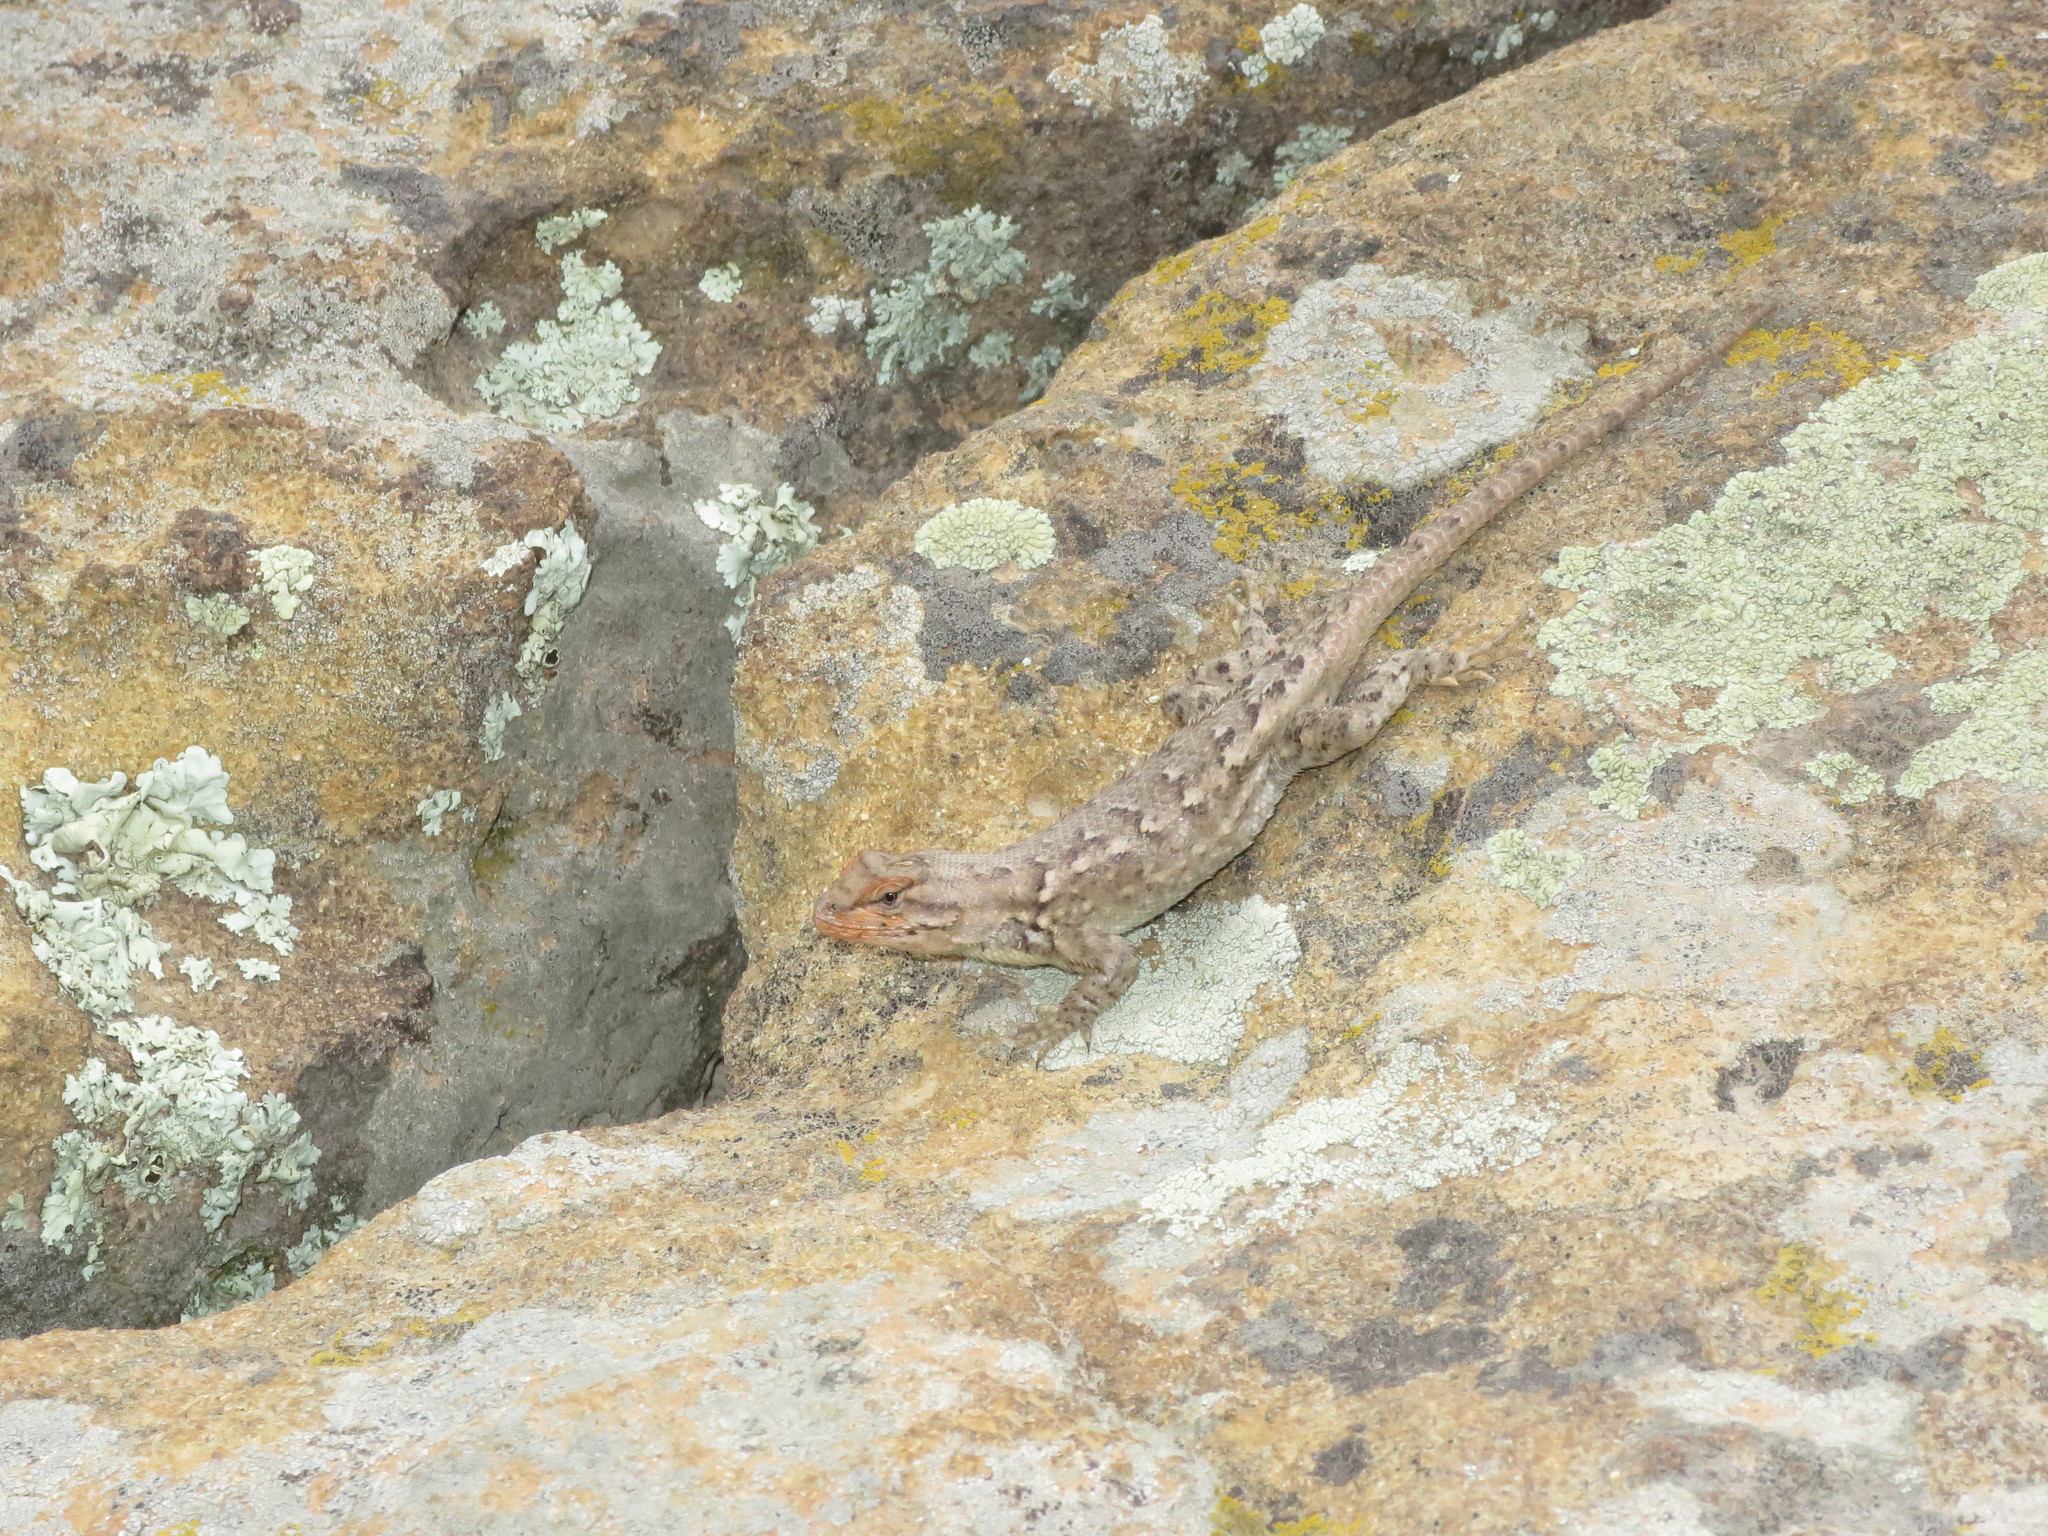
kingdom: Animalia
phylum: Chordata
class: Squamata
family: Phrynosomatidae
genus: Sceloporus
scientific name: Sceloporus consobrinus
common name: Southern prairie lizard
